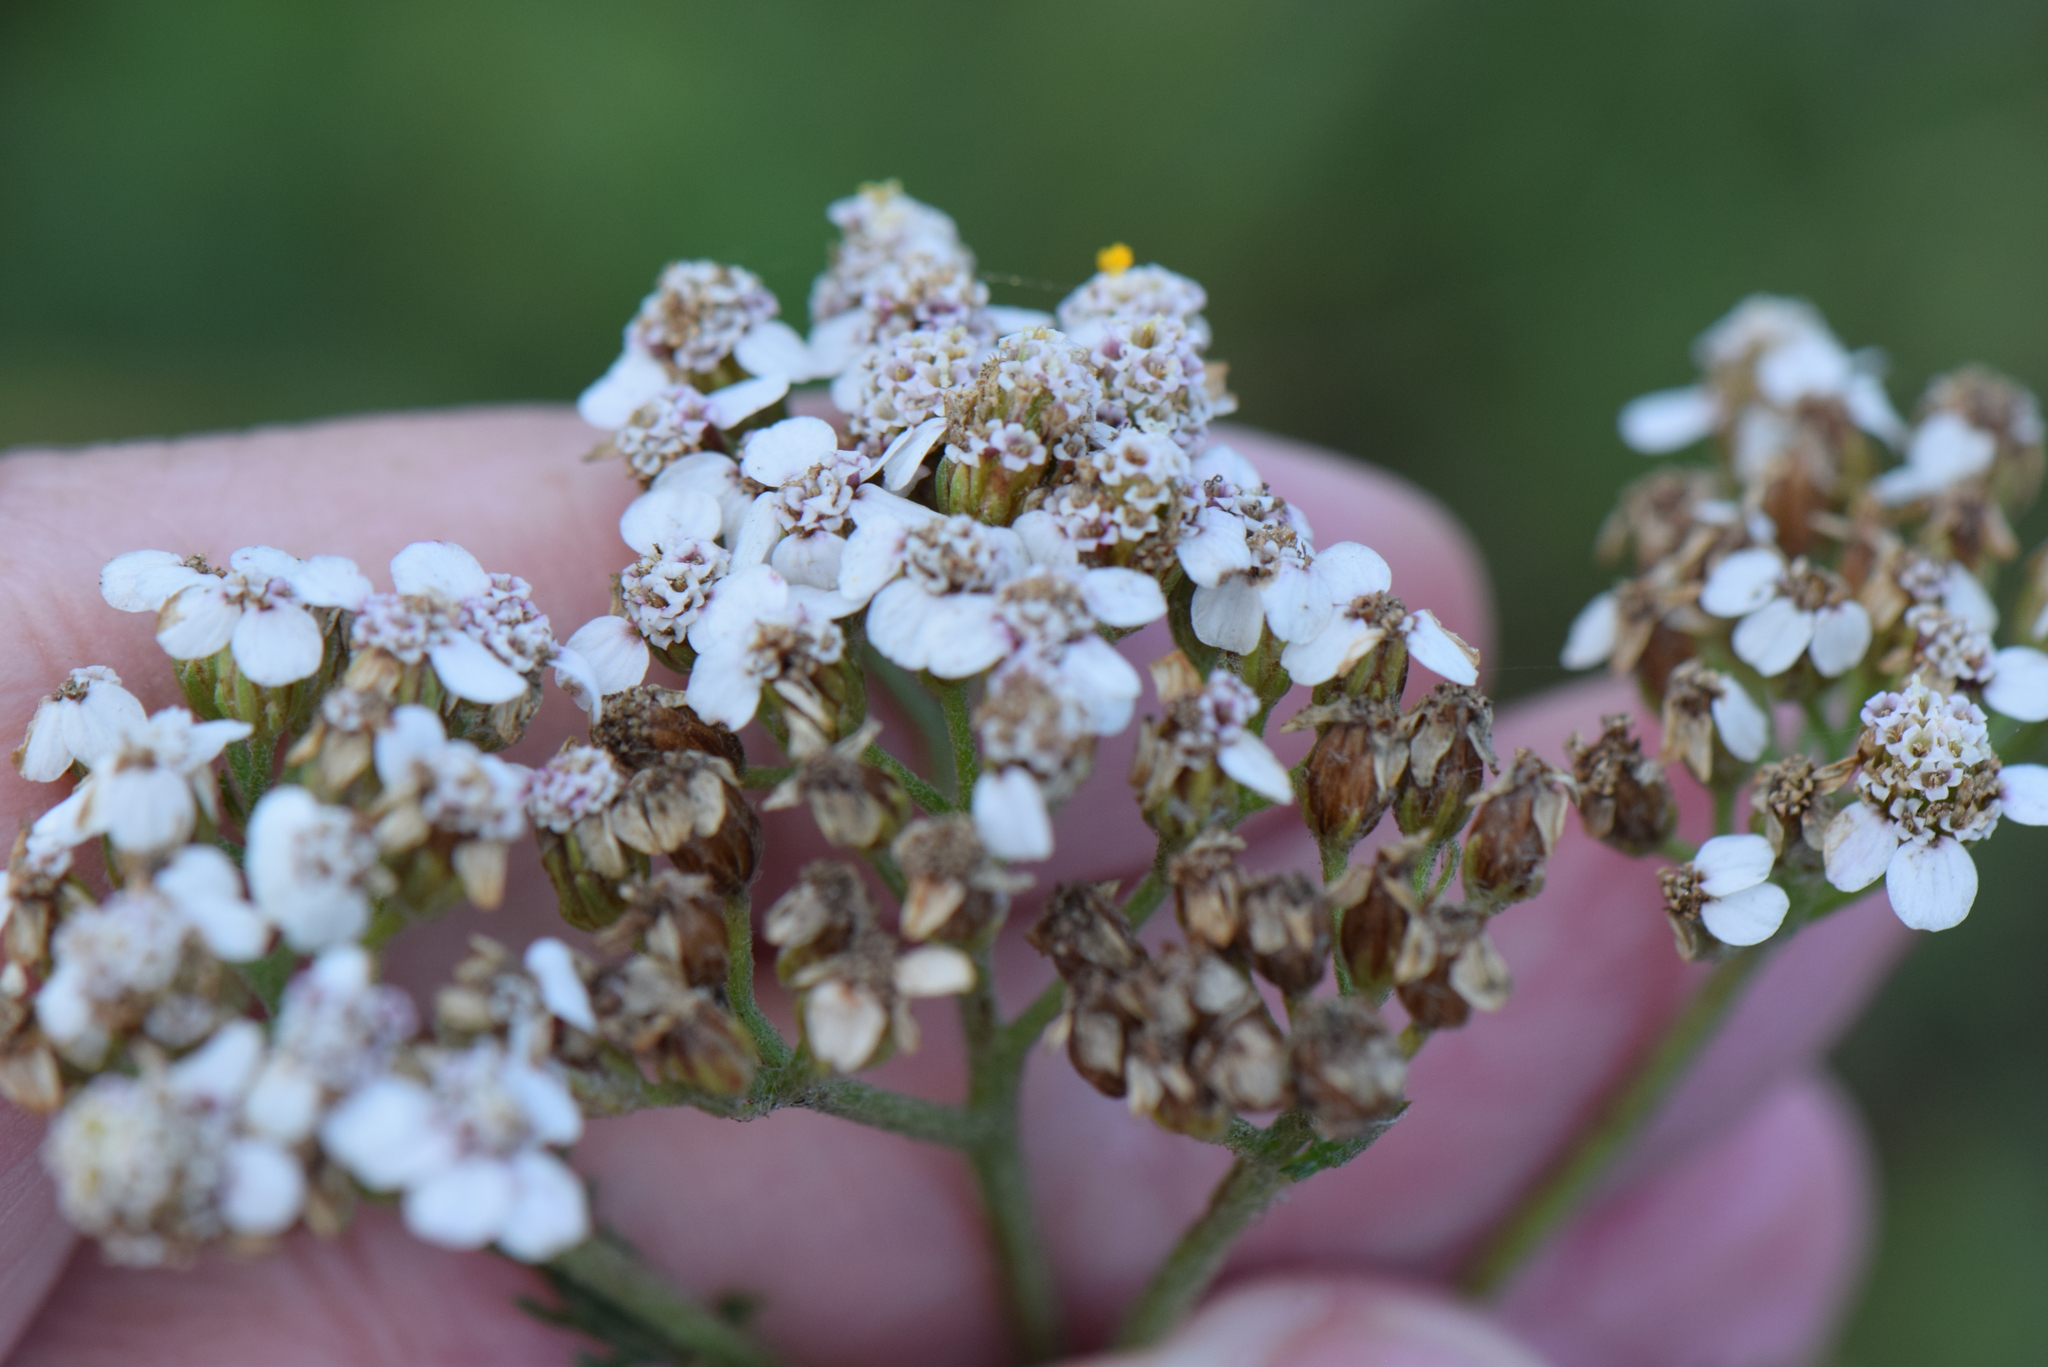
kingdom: Plantae
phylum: Tracheophyta
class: Magnoliopsida
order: Asterales
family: Asteraceae
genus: Achillea
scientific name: Achillea millefolium
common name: Yarrow
